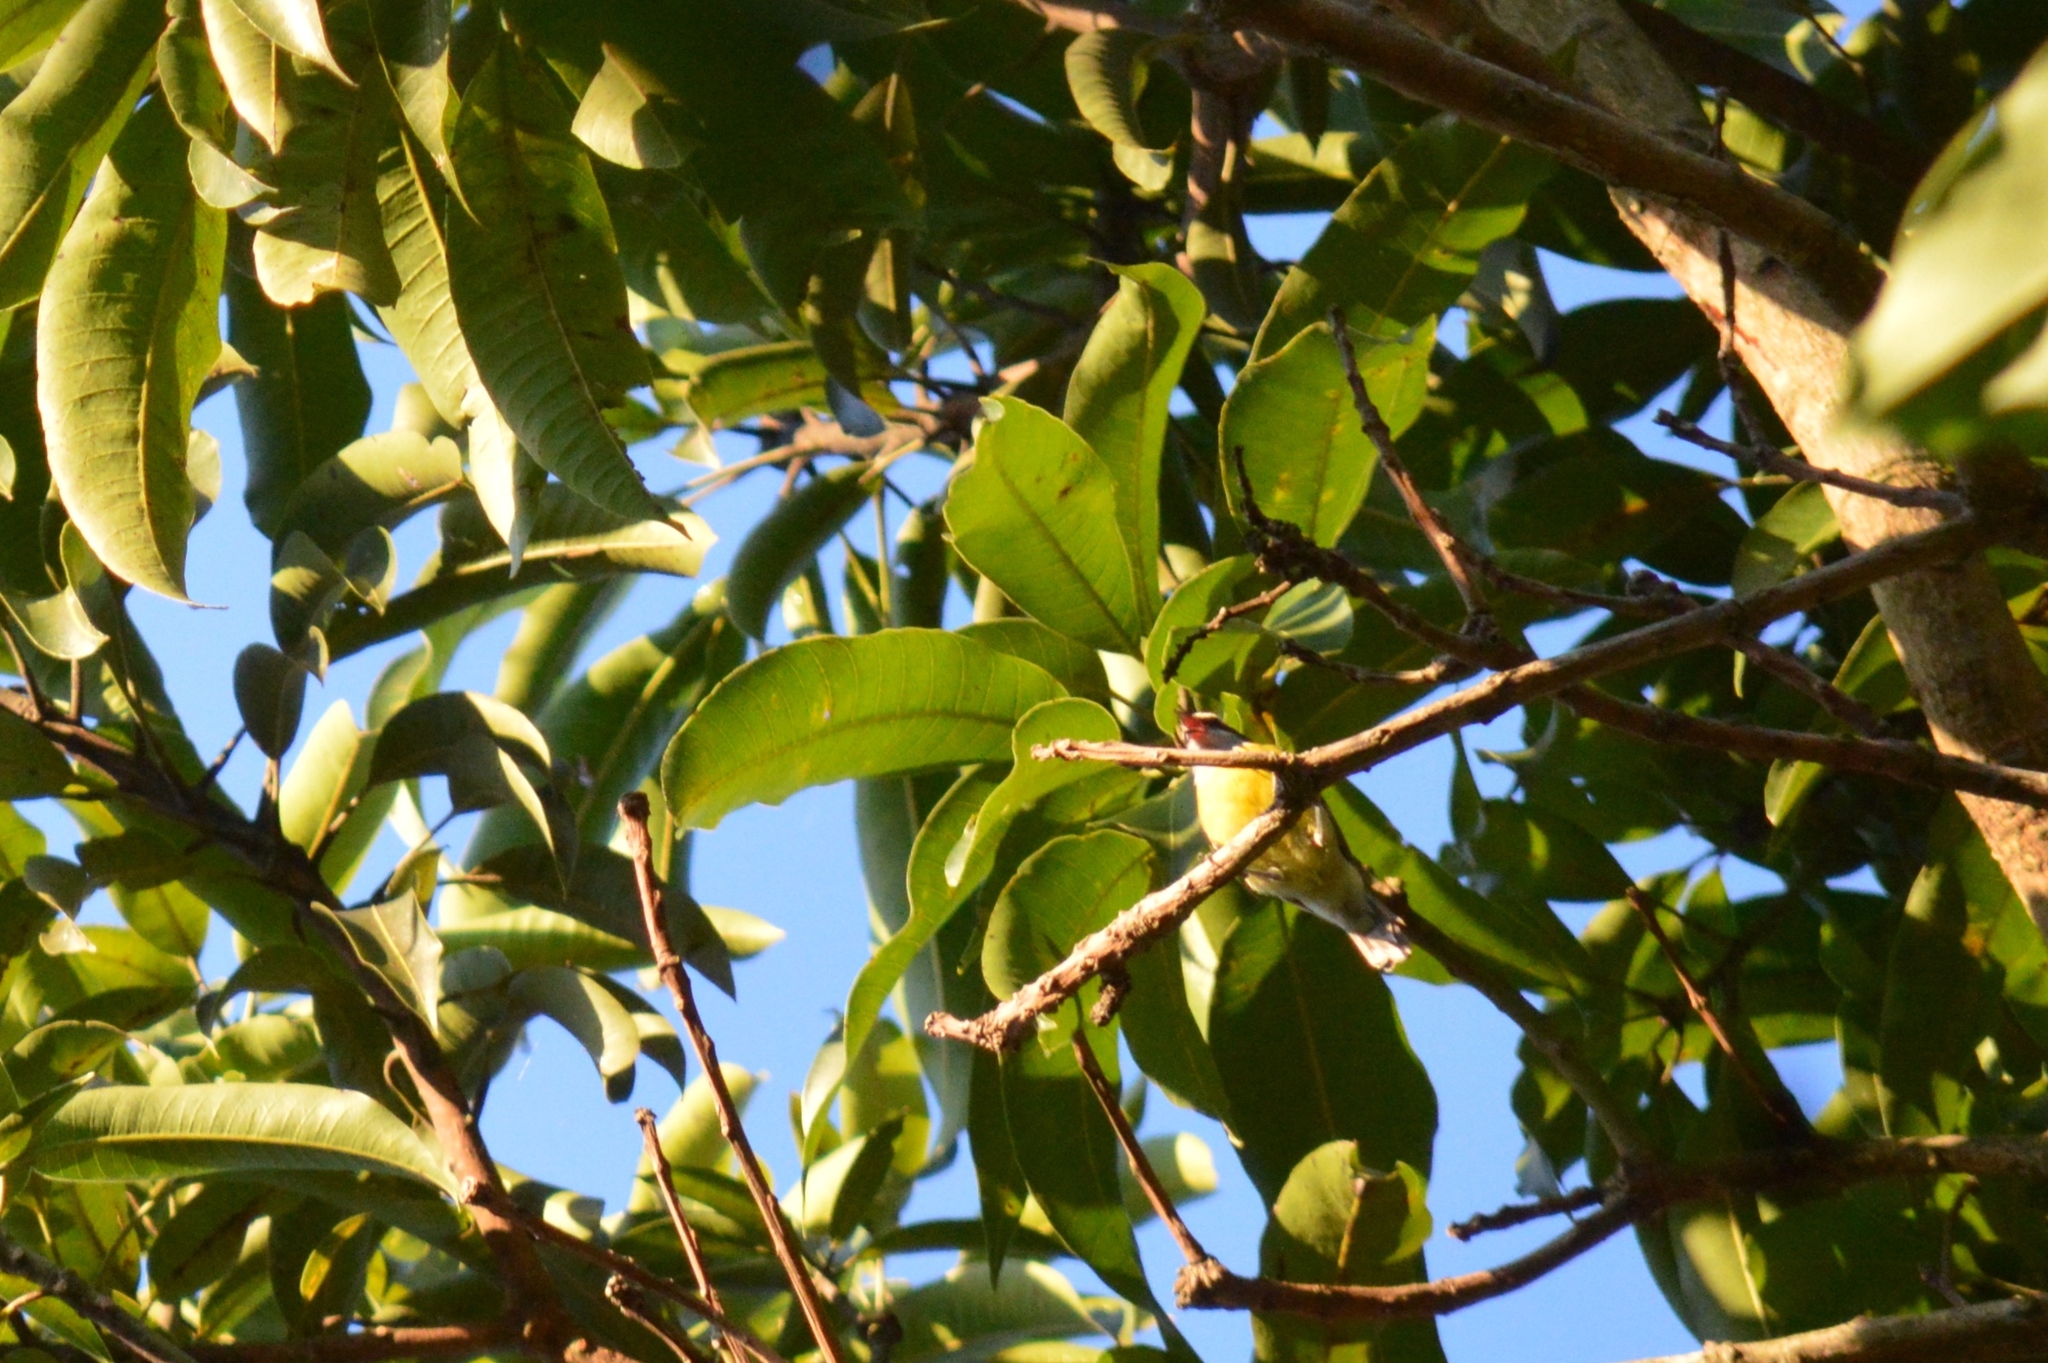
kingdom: Animalia
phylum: Chordata
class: Aves
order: Passeriformes
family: Thraupidae
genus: Coereba
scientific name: Coereba flaveola
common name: Bananaquit
